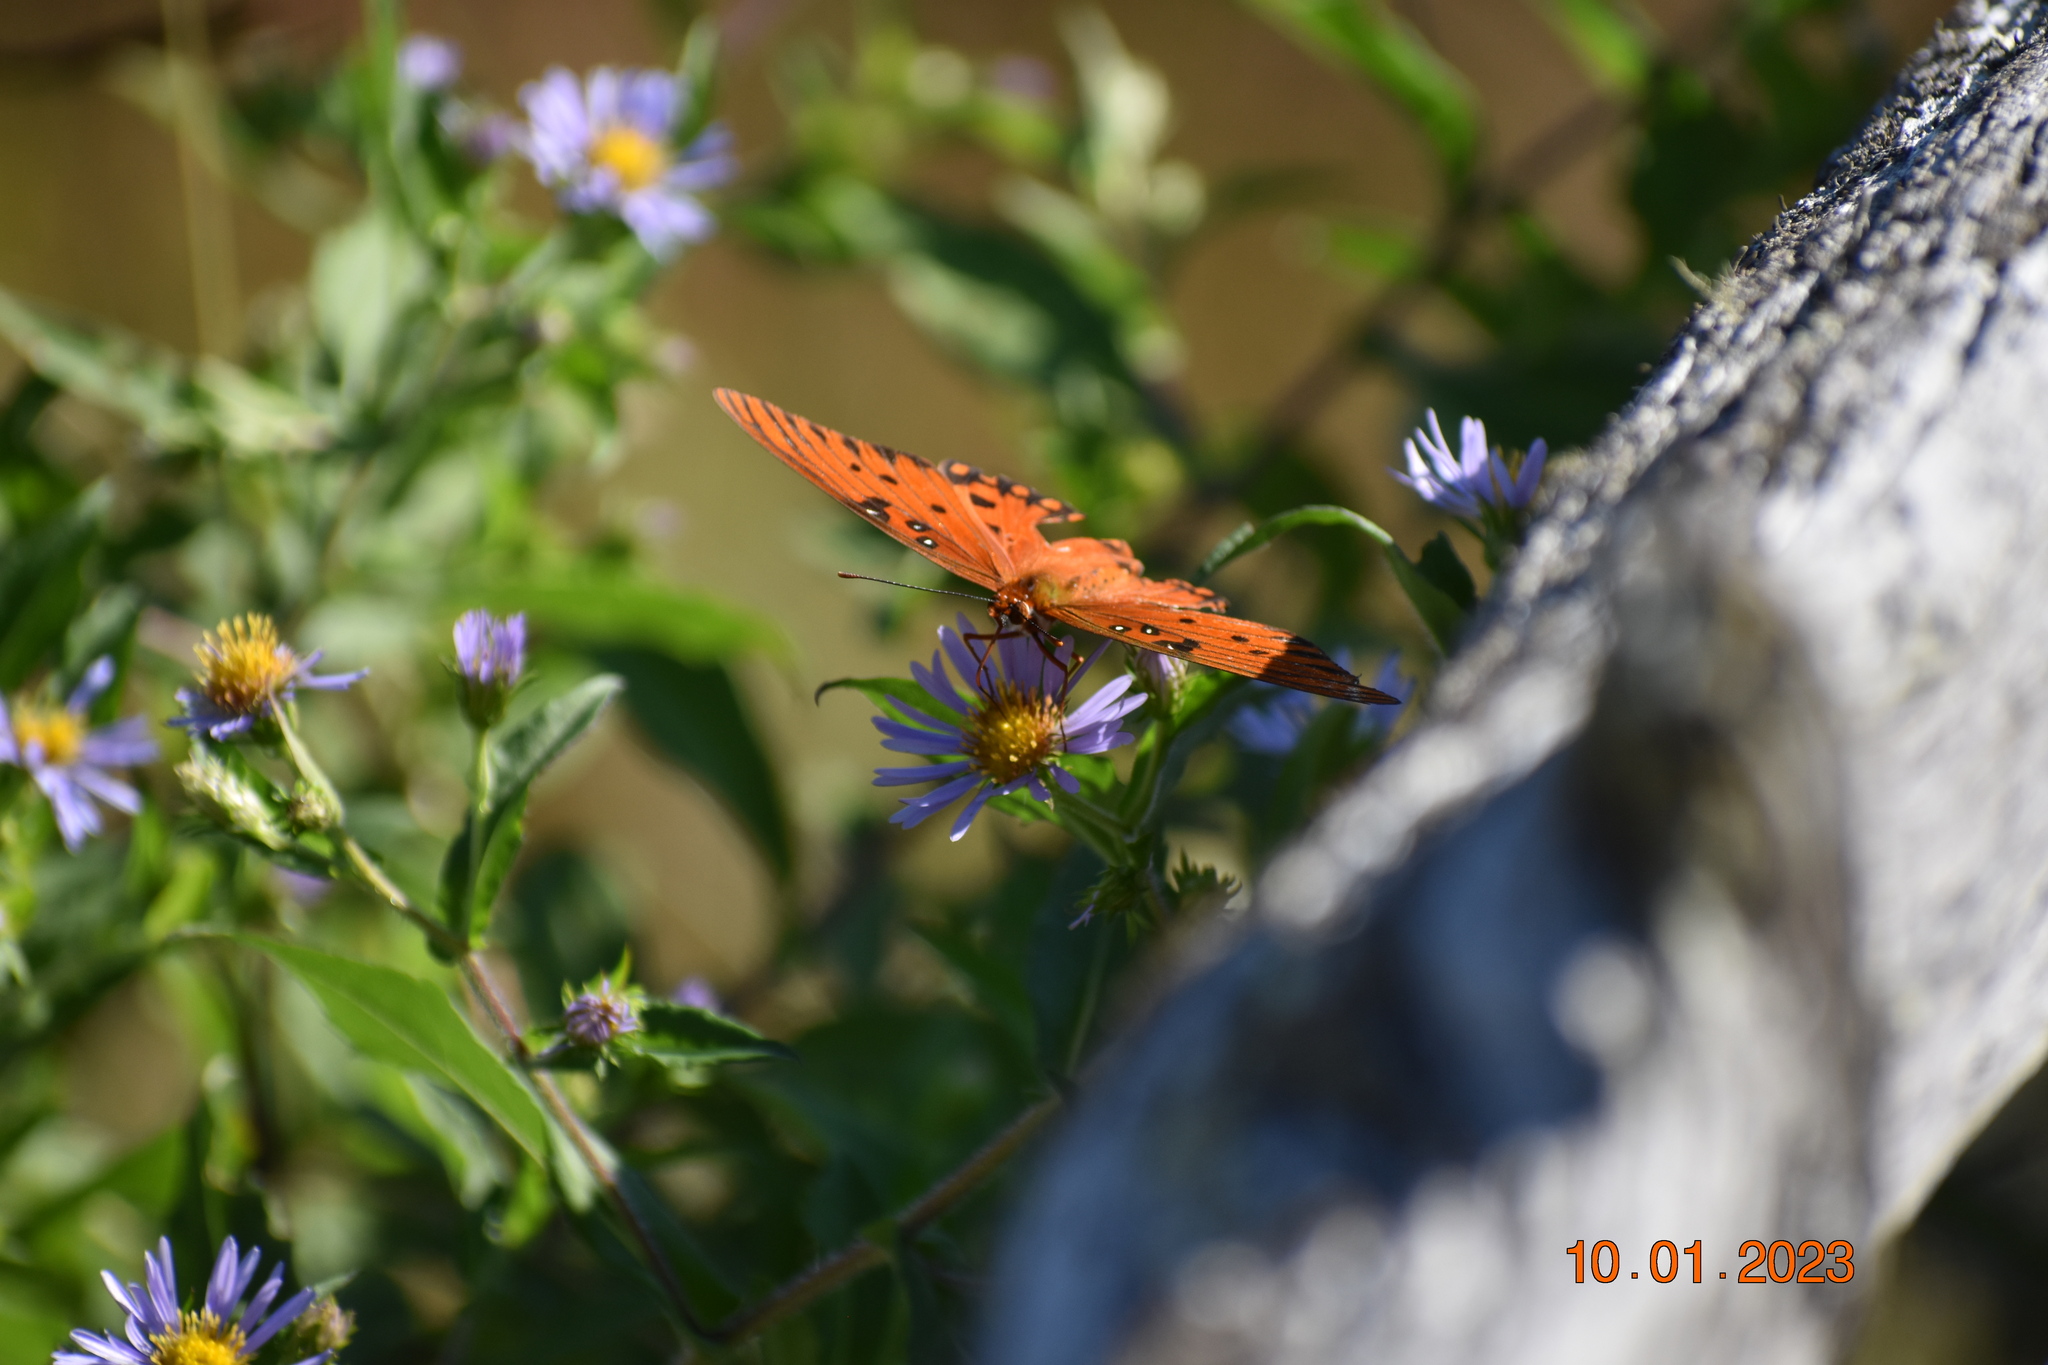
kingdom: Animalia
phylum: Arthropoda
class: Insecta
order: Lepidoptera
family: Nymphalidae
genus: Dione
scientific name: Dione vanillae
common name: Gulf fritillary
